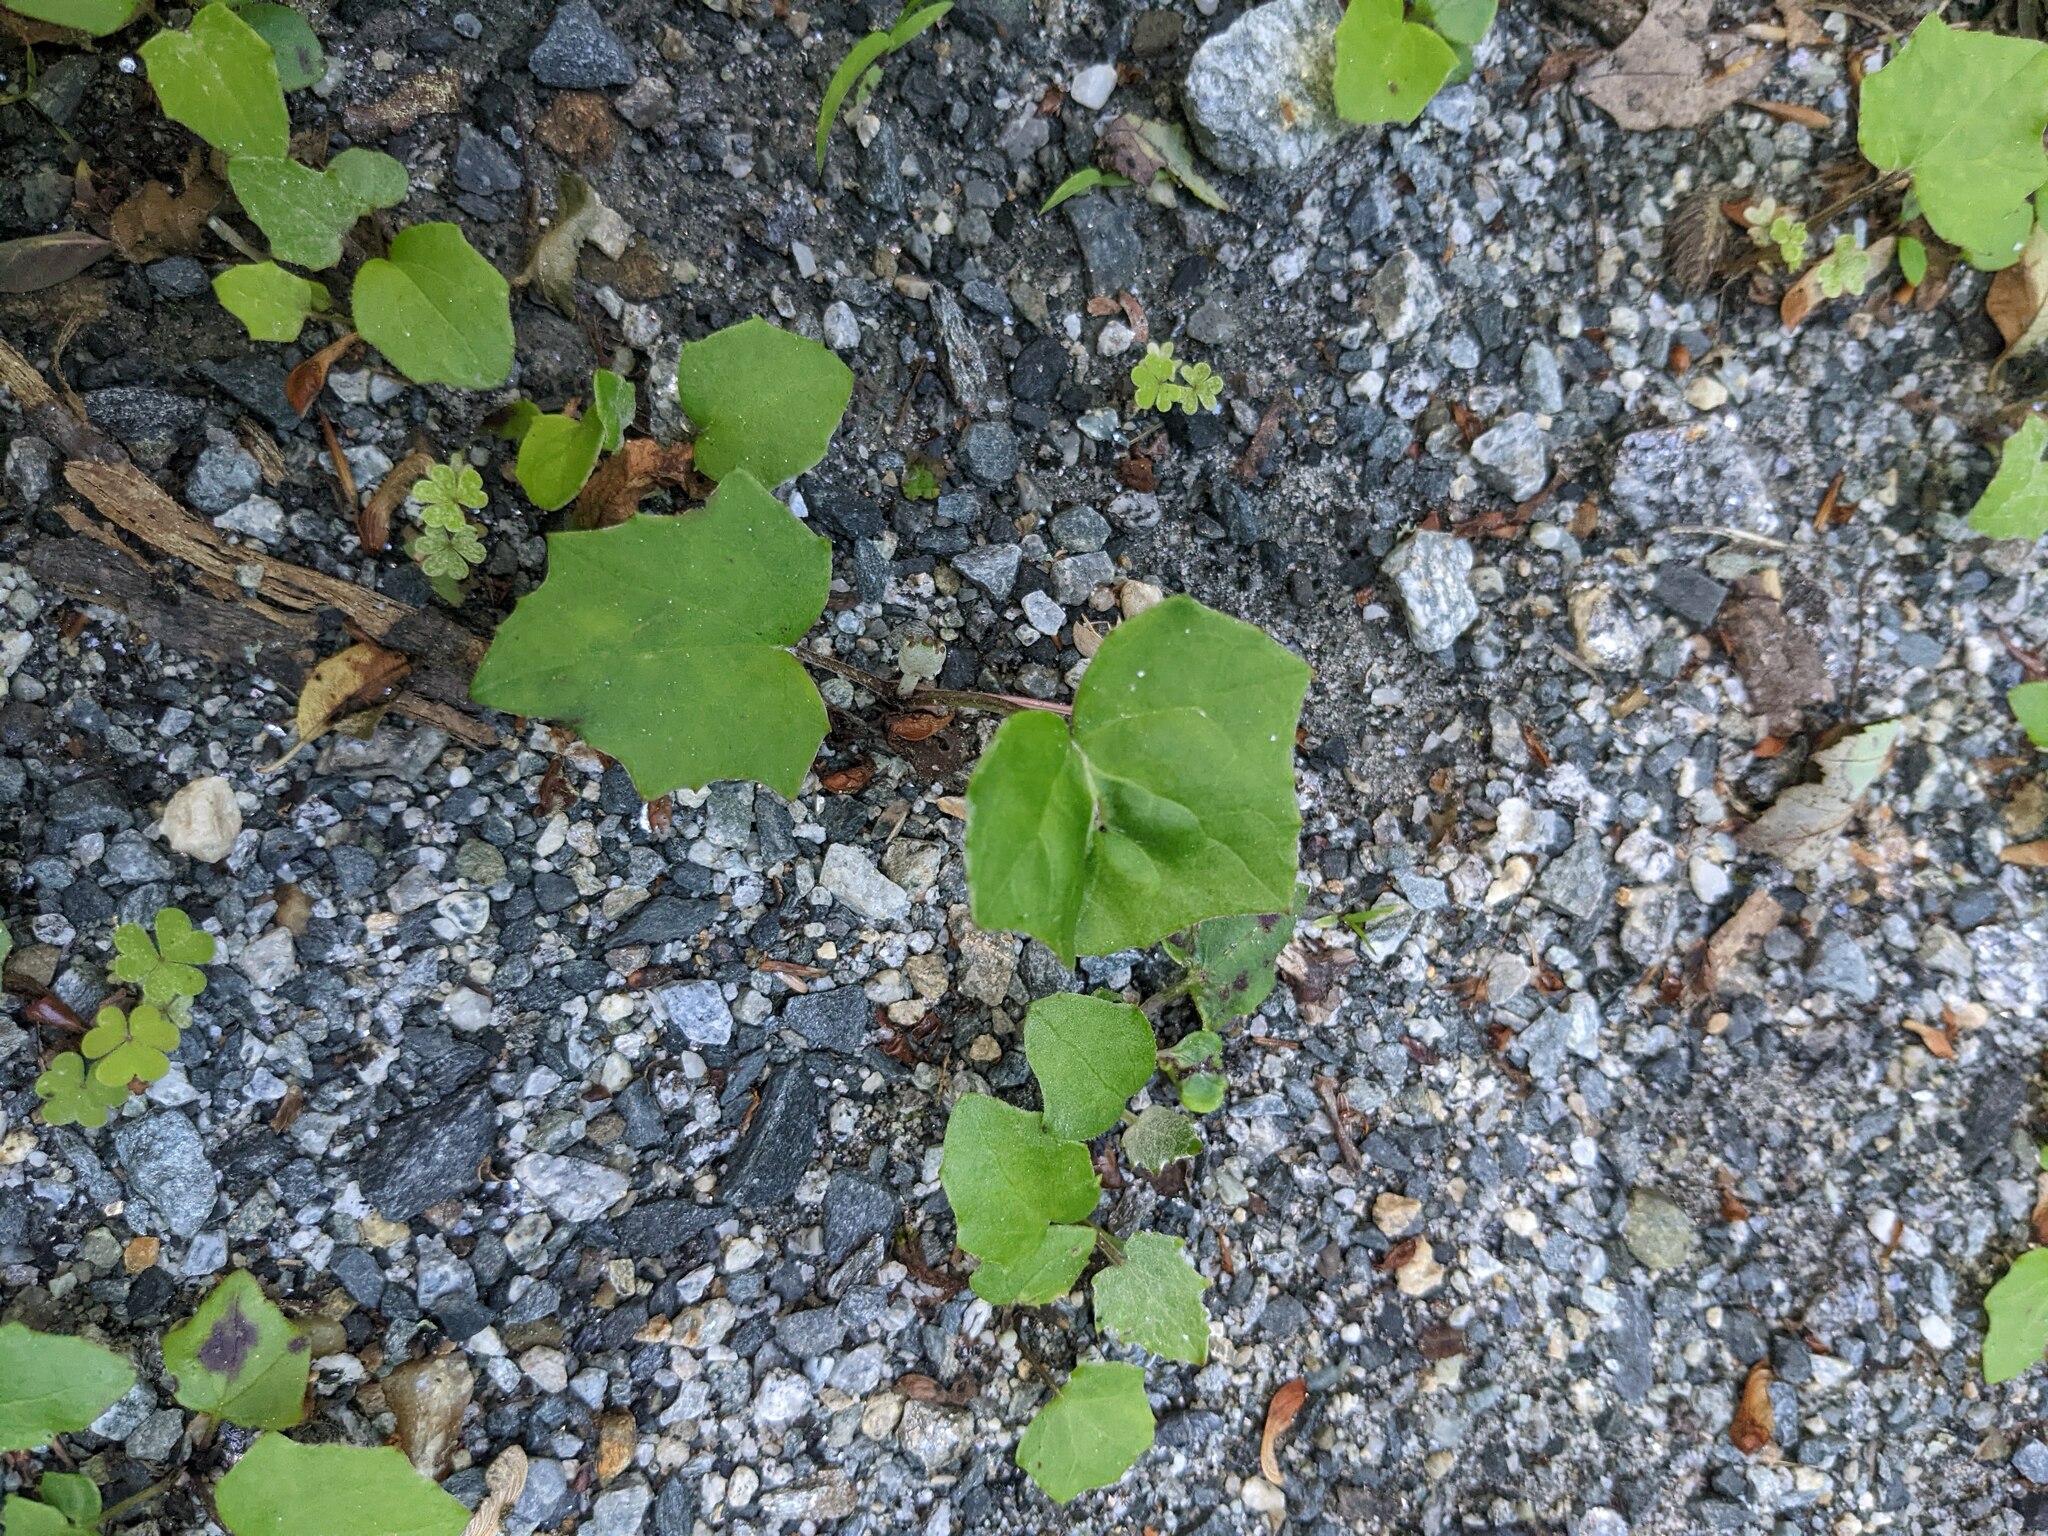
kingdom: Plantae
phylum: Tracheophyta
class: Magnoliopsida
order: Asterales
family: Asteraceae
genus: Tussilago
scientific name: Tussilago farfara
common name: Coltsfoot
